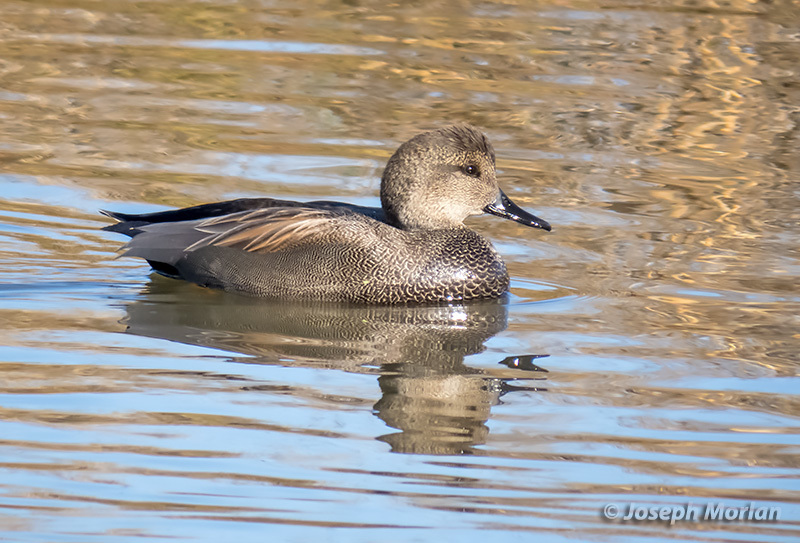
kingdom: Animalia
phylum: Chordata
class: Aves
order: Anseriformes
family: Anatidae
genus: Mareca
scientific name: Mareca strepera
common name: Gadwall
